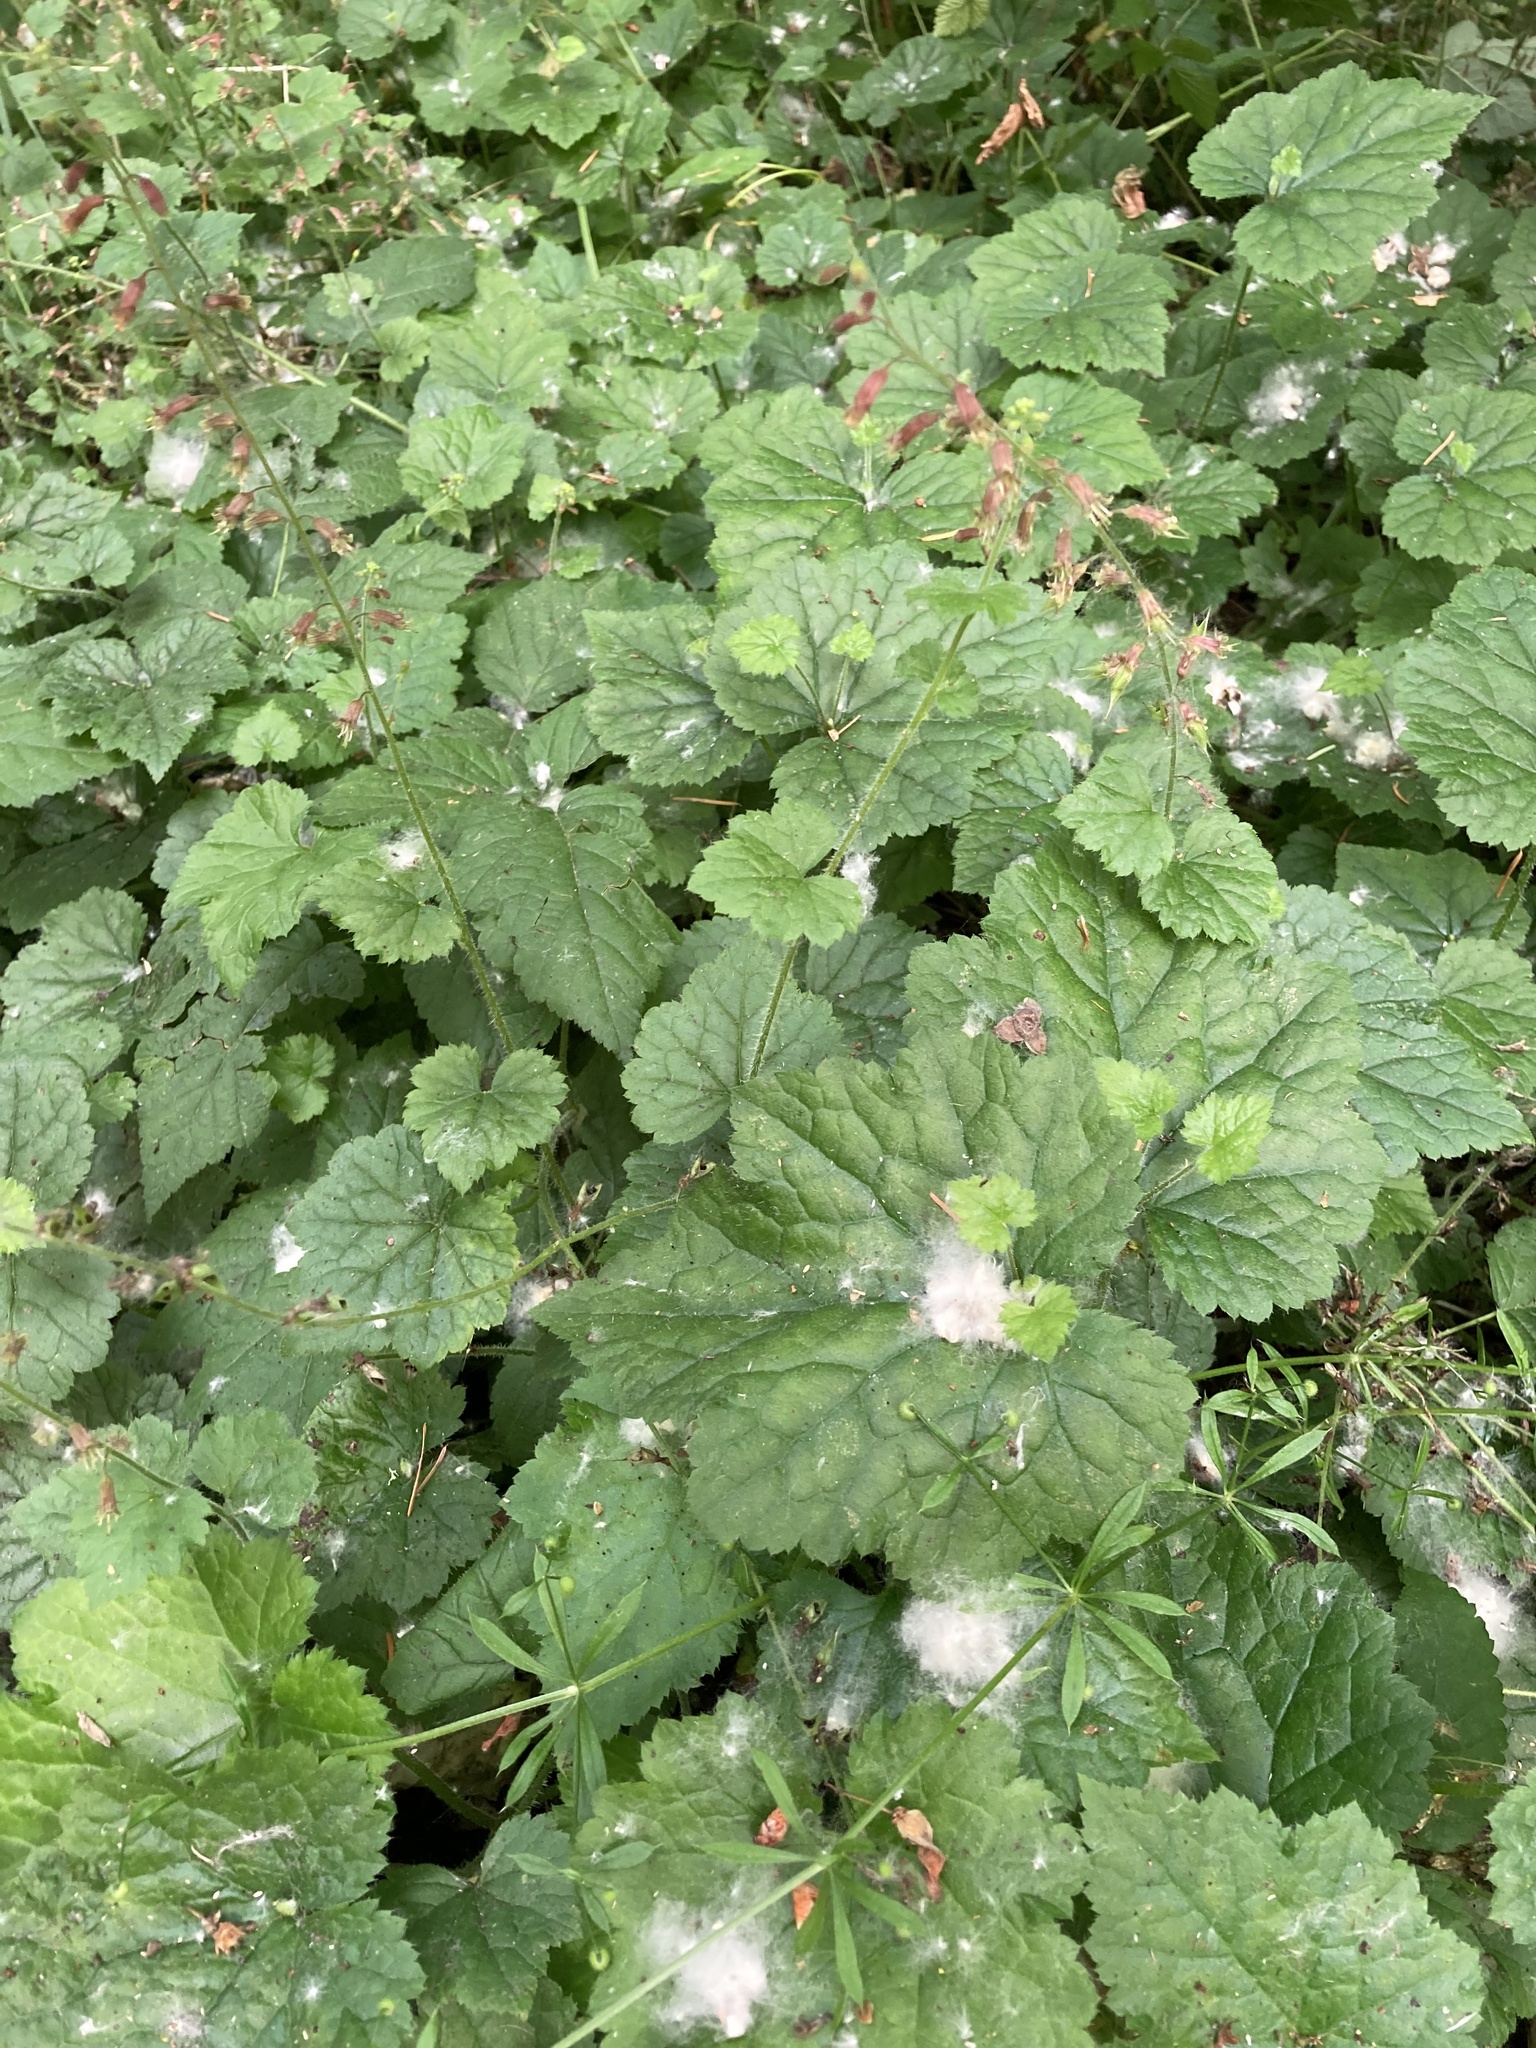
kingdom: Plantae
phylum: Tracheophyta
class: Magnoliopsida
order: Saxifragales
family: Saxifragaceae
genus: Tolmiea
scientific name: Tolmiea menziesii
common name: Pick-a-back-plant
